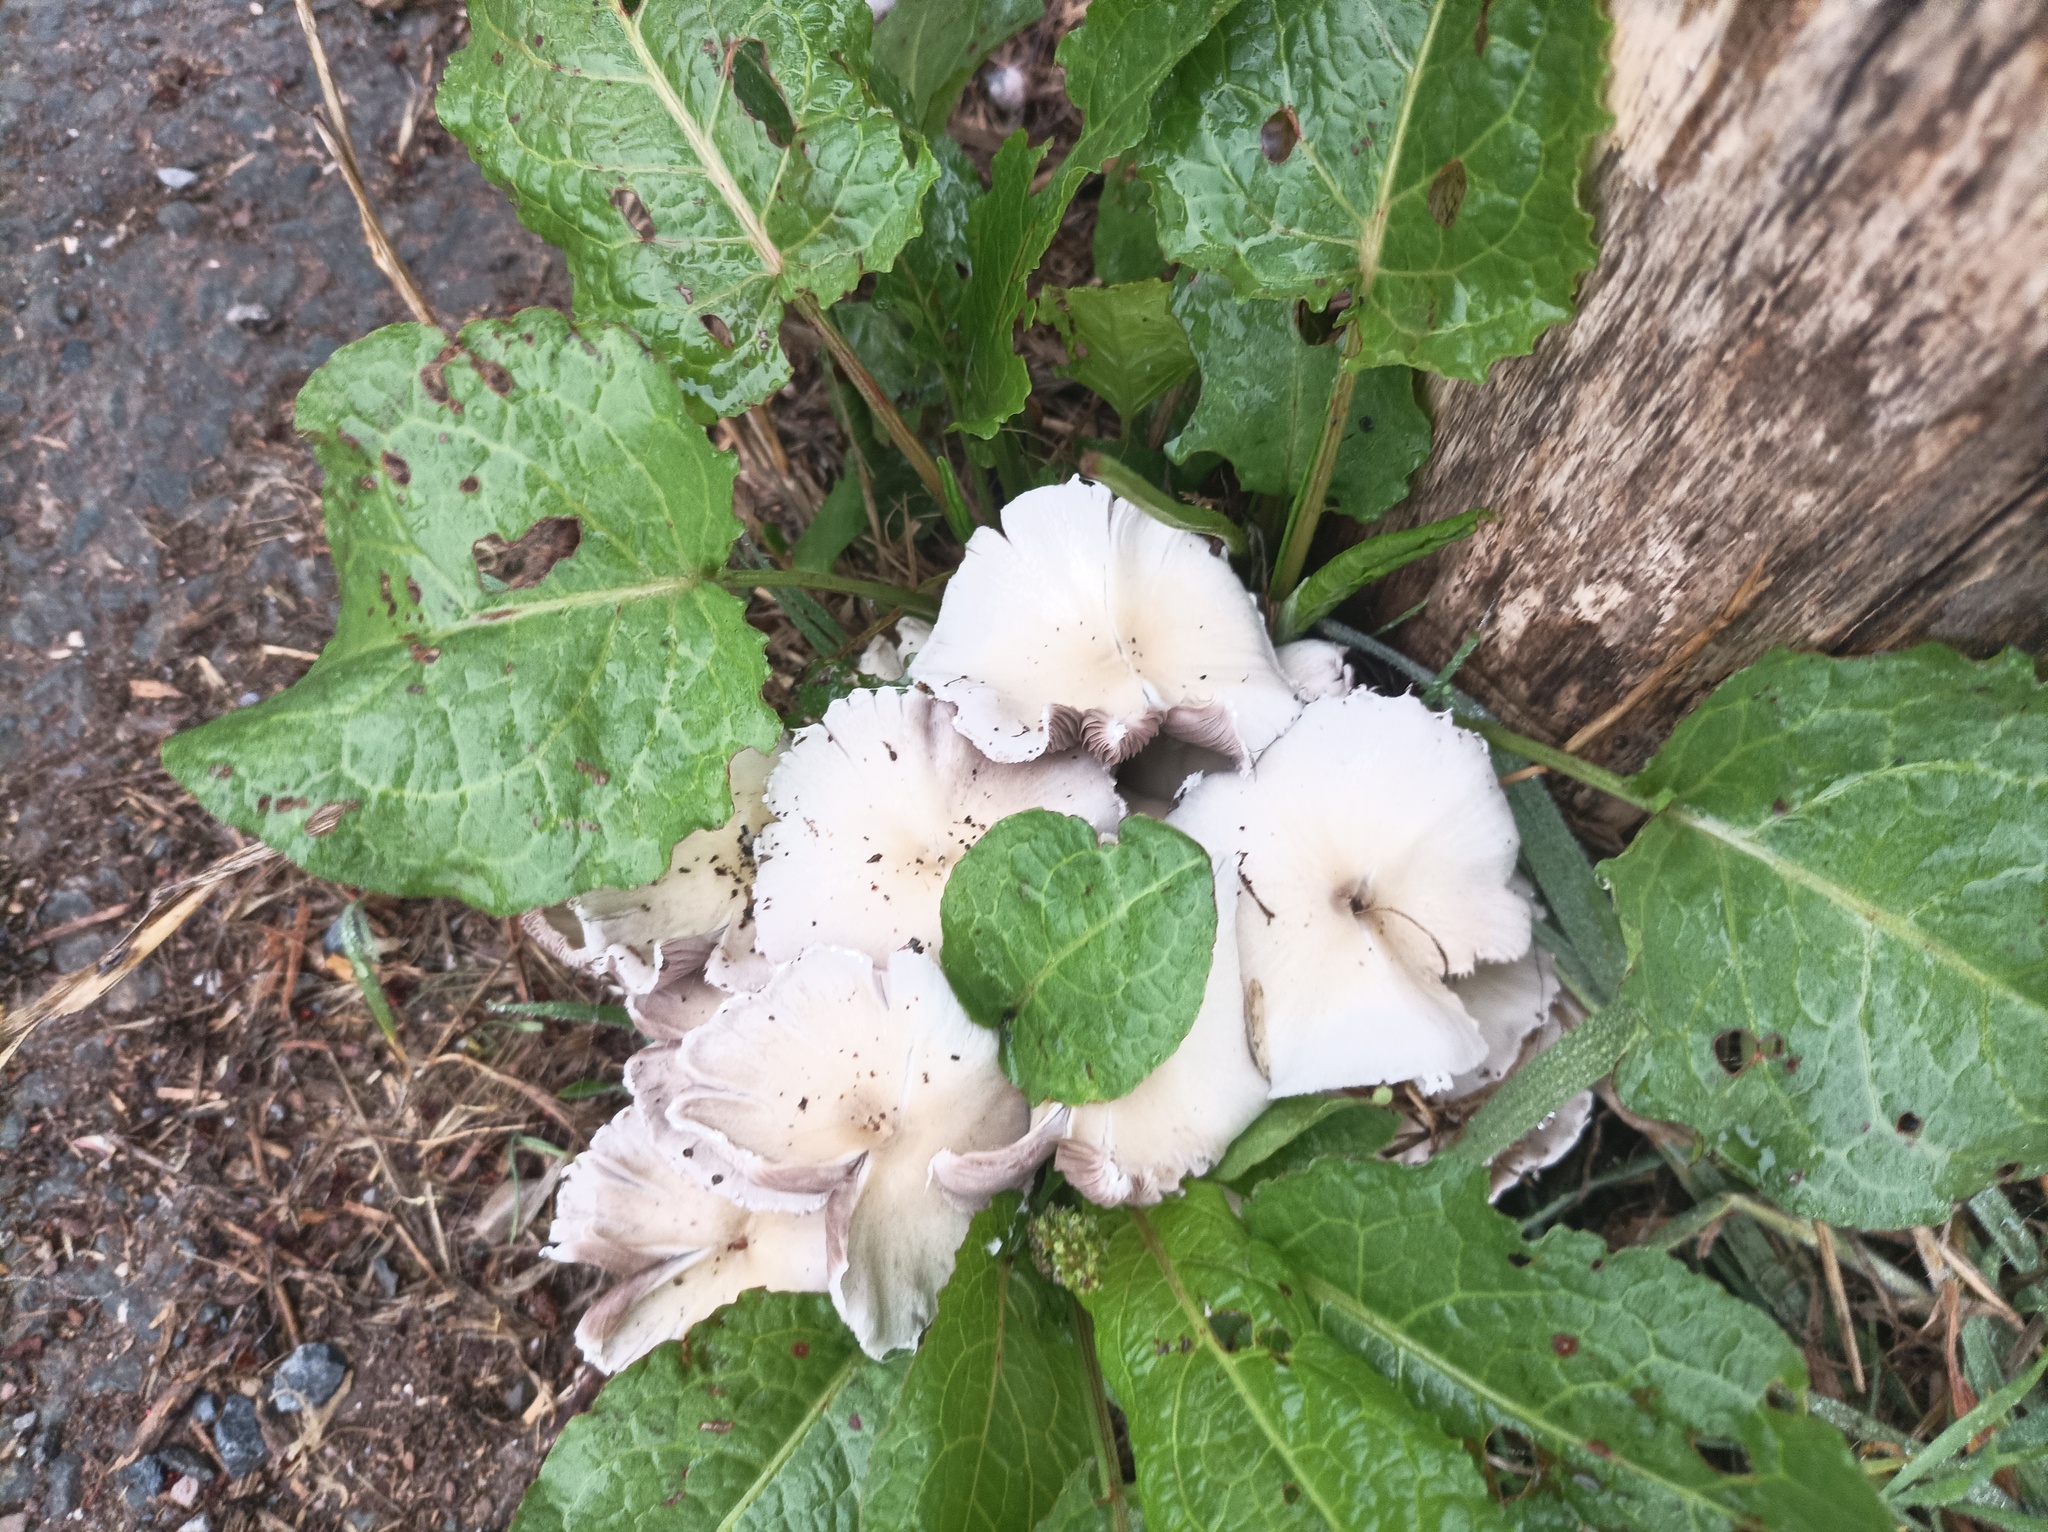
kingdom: Fungi
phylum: Basidiomycota
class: Agaricomycetes
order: Agaricales
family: Psathyrellaceae
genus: Candolleomyces
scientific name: Candolleomyces candolleanus
